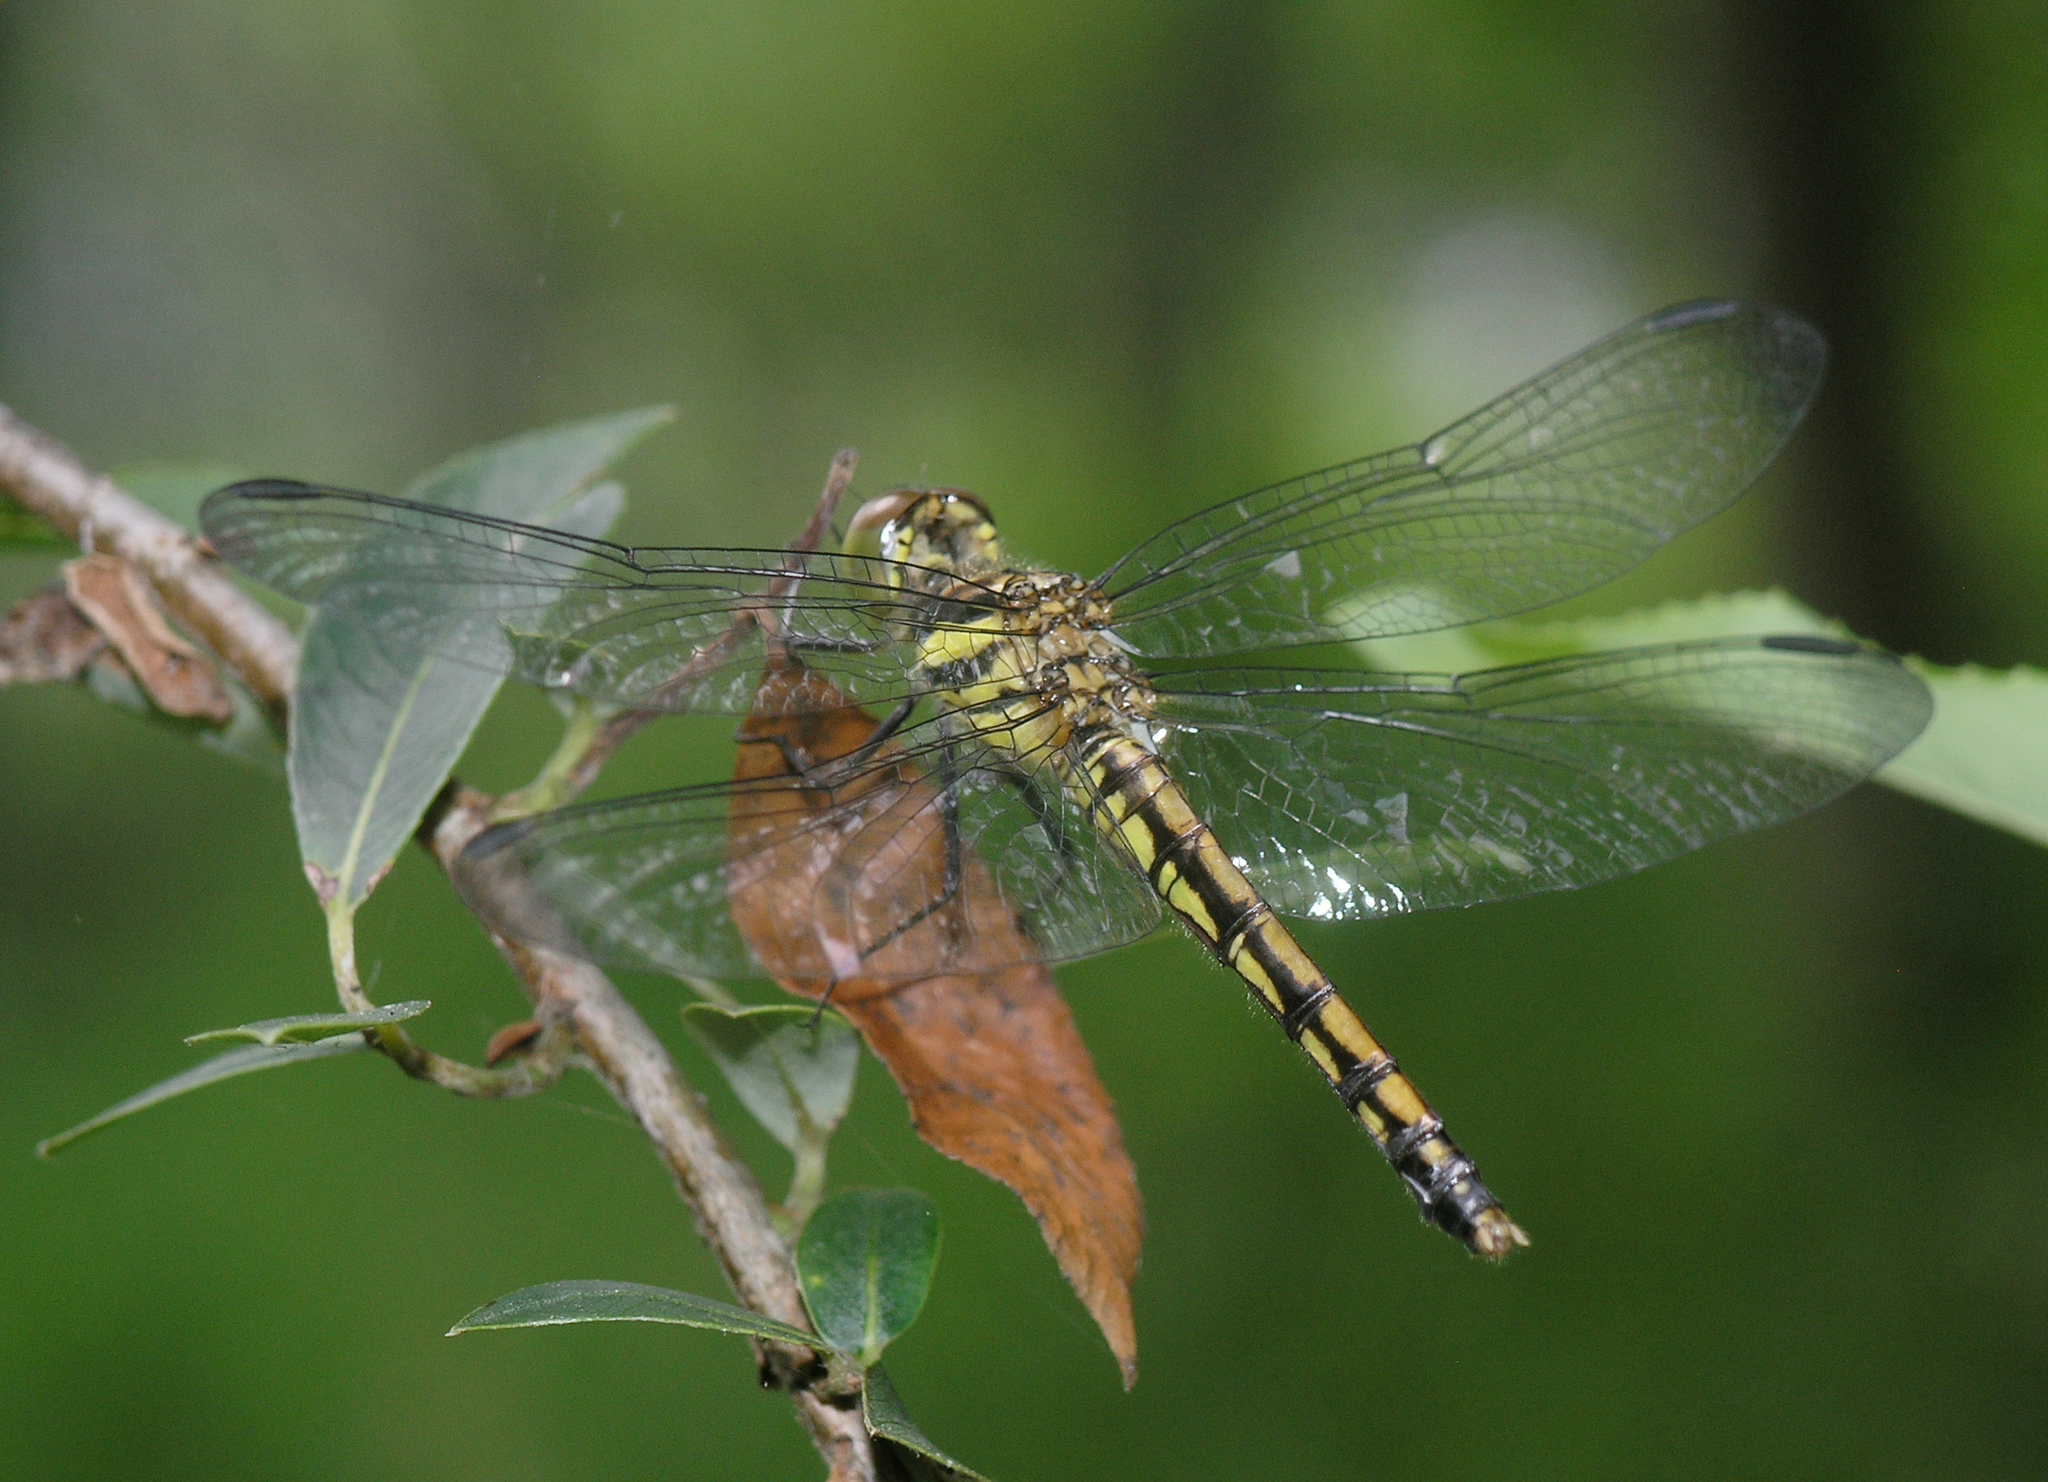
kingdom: Animalia
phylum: Arthropoda
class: Insecta
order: Odonata
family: Libellulidae
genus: Sympetrum
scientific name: Sympetrum infuscatum
